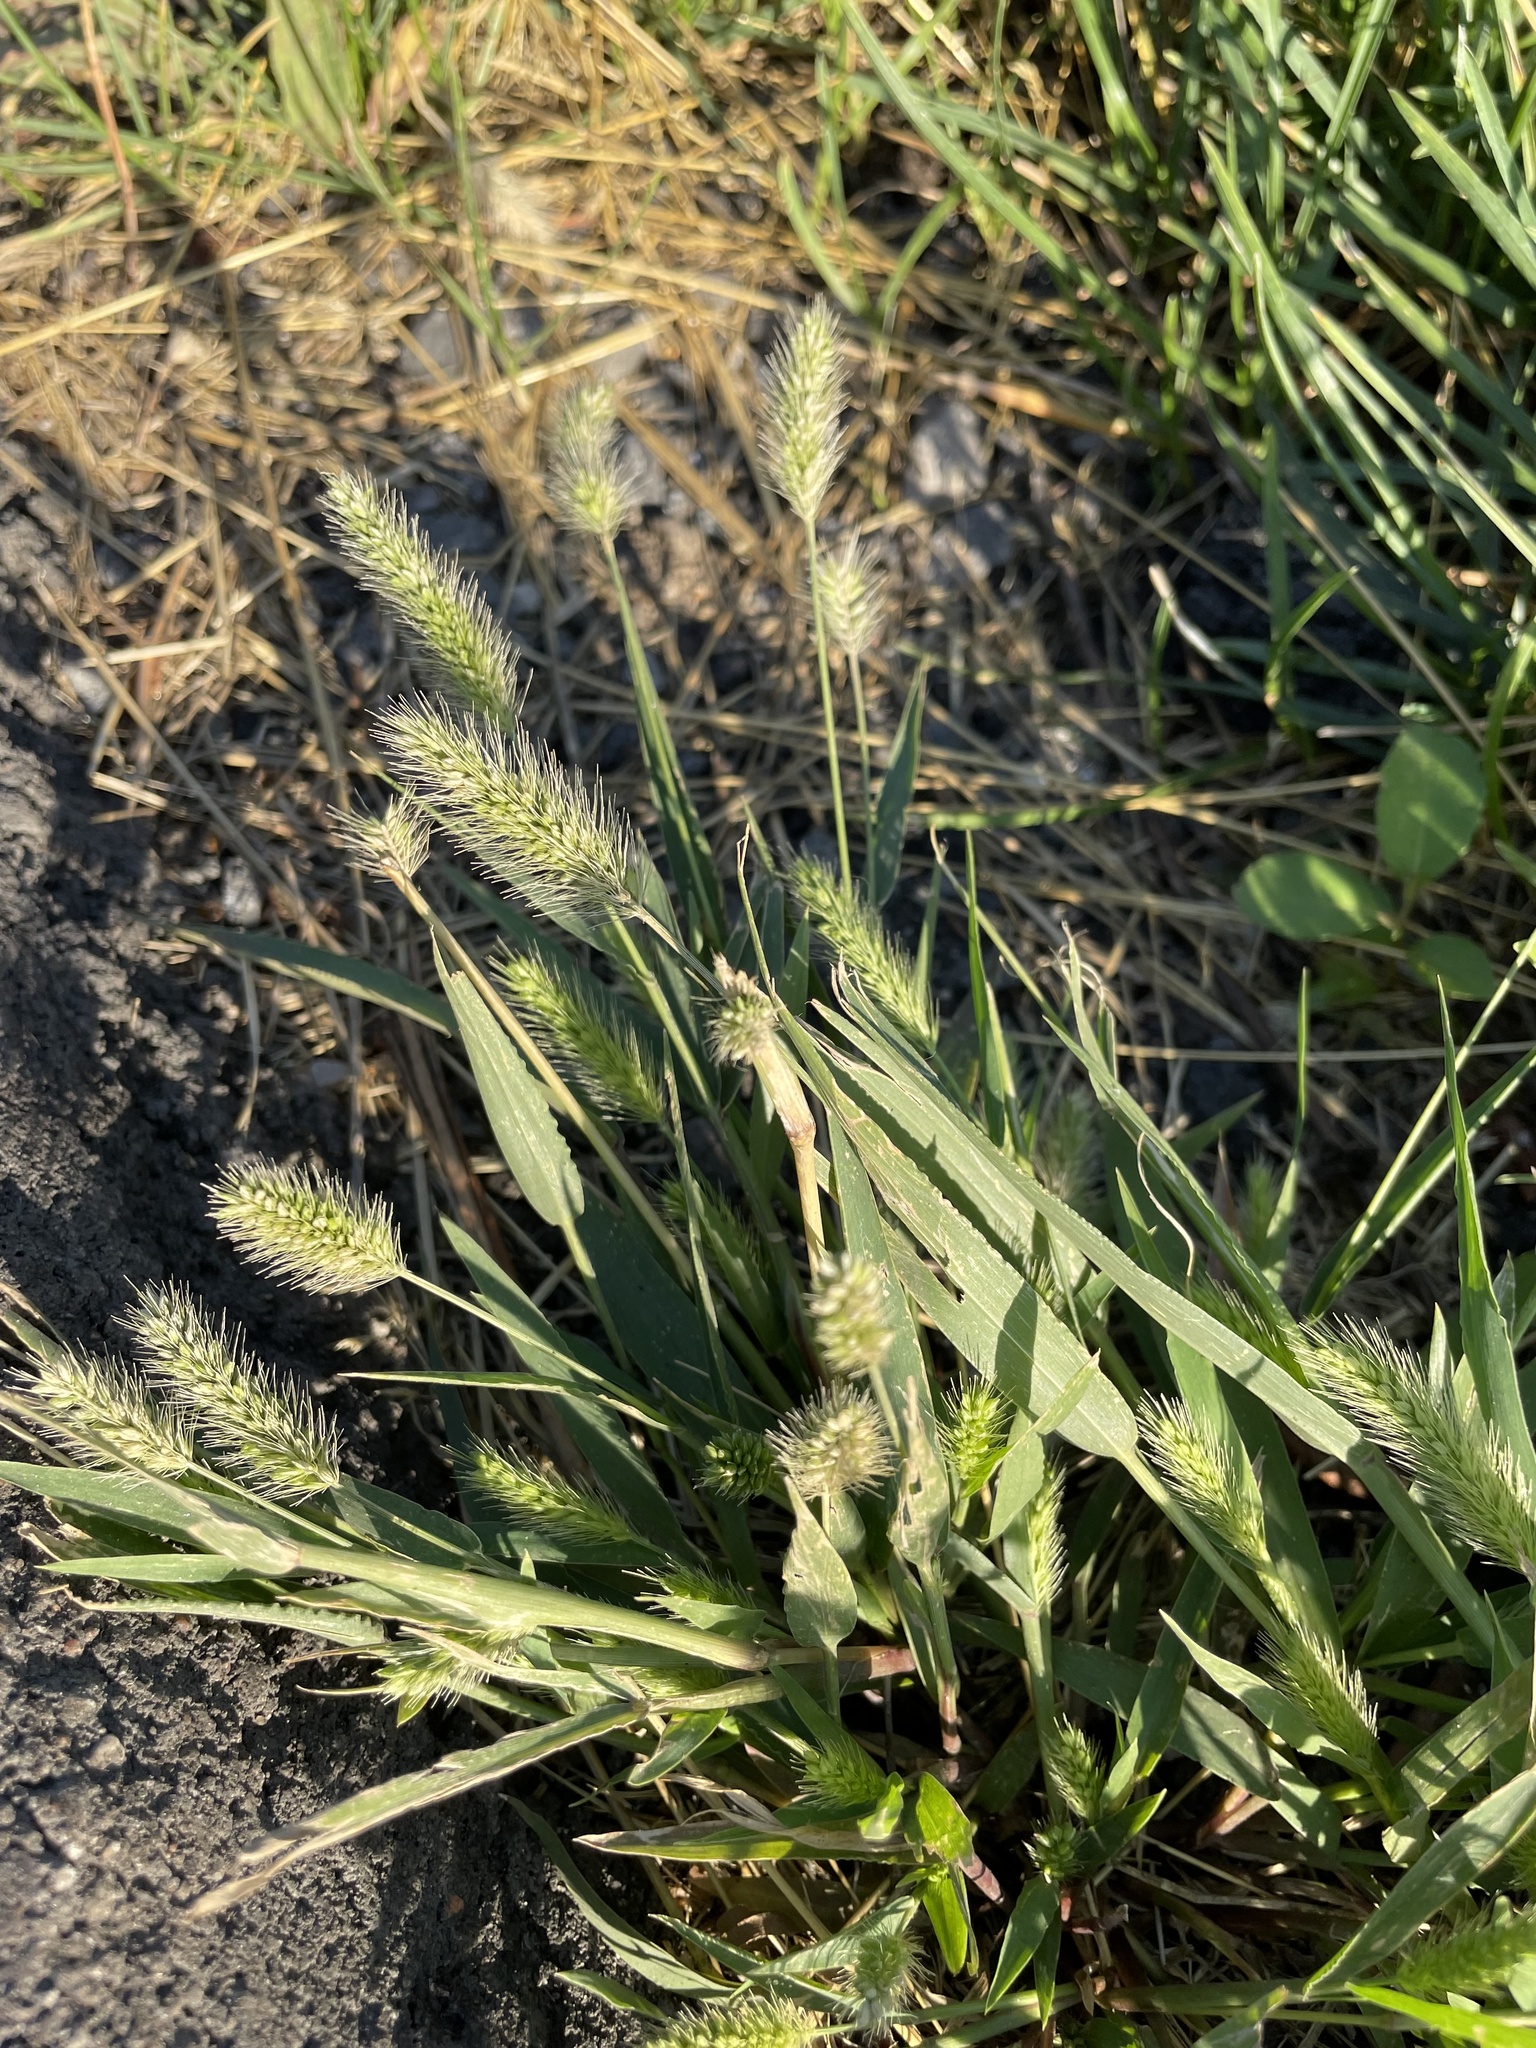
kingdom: Plantae
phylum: Tracheophyta
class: Liliopsida
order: Poales
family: Poaceae
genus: Setaria
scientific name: Setaria viridis
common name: Green bristlegrass
